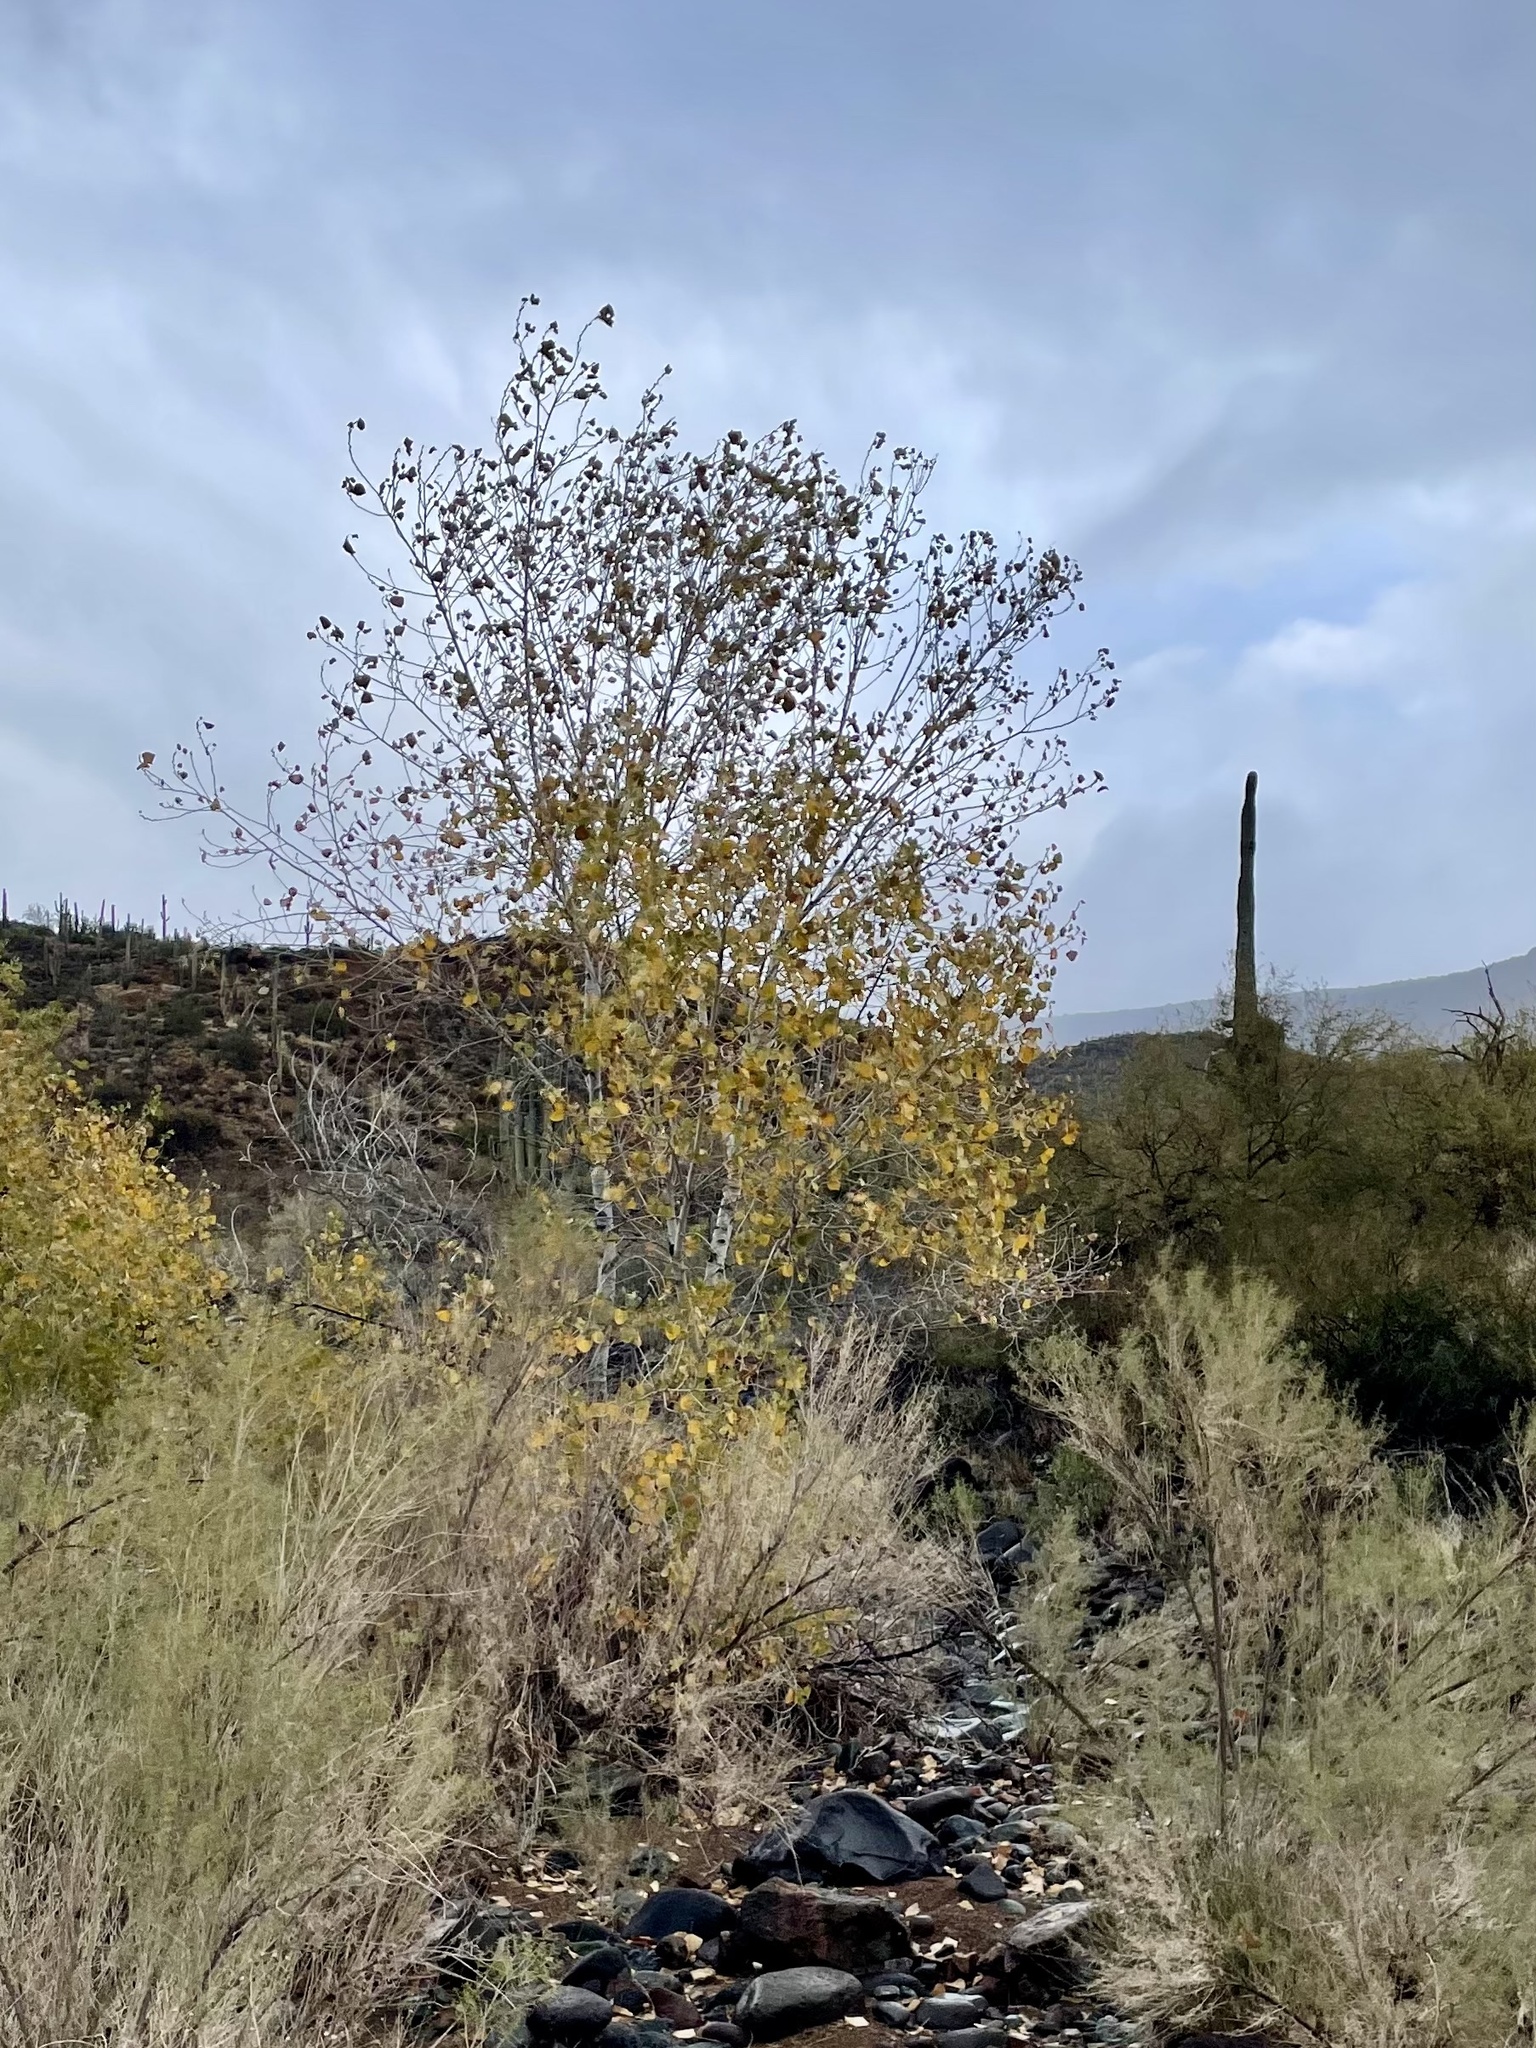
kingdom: Plantae
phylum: Tracheophyta
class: Magnoliopsida
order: Malpighiales
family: Salicaceae
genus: Populus
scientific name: Populus fremontii
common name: Fremont's cottonwood
